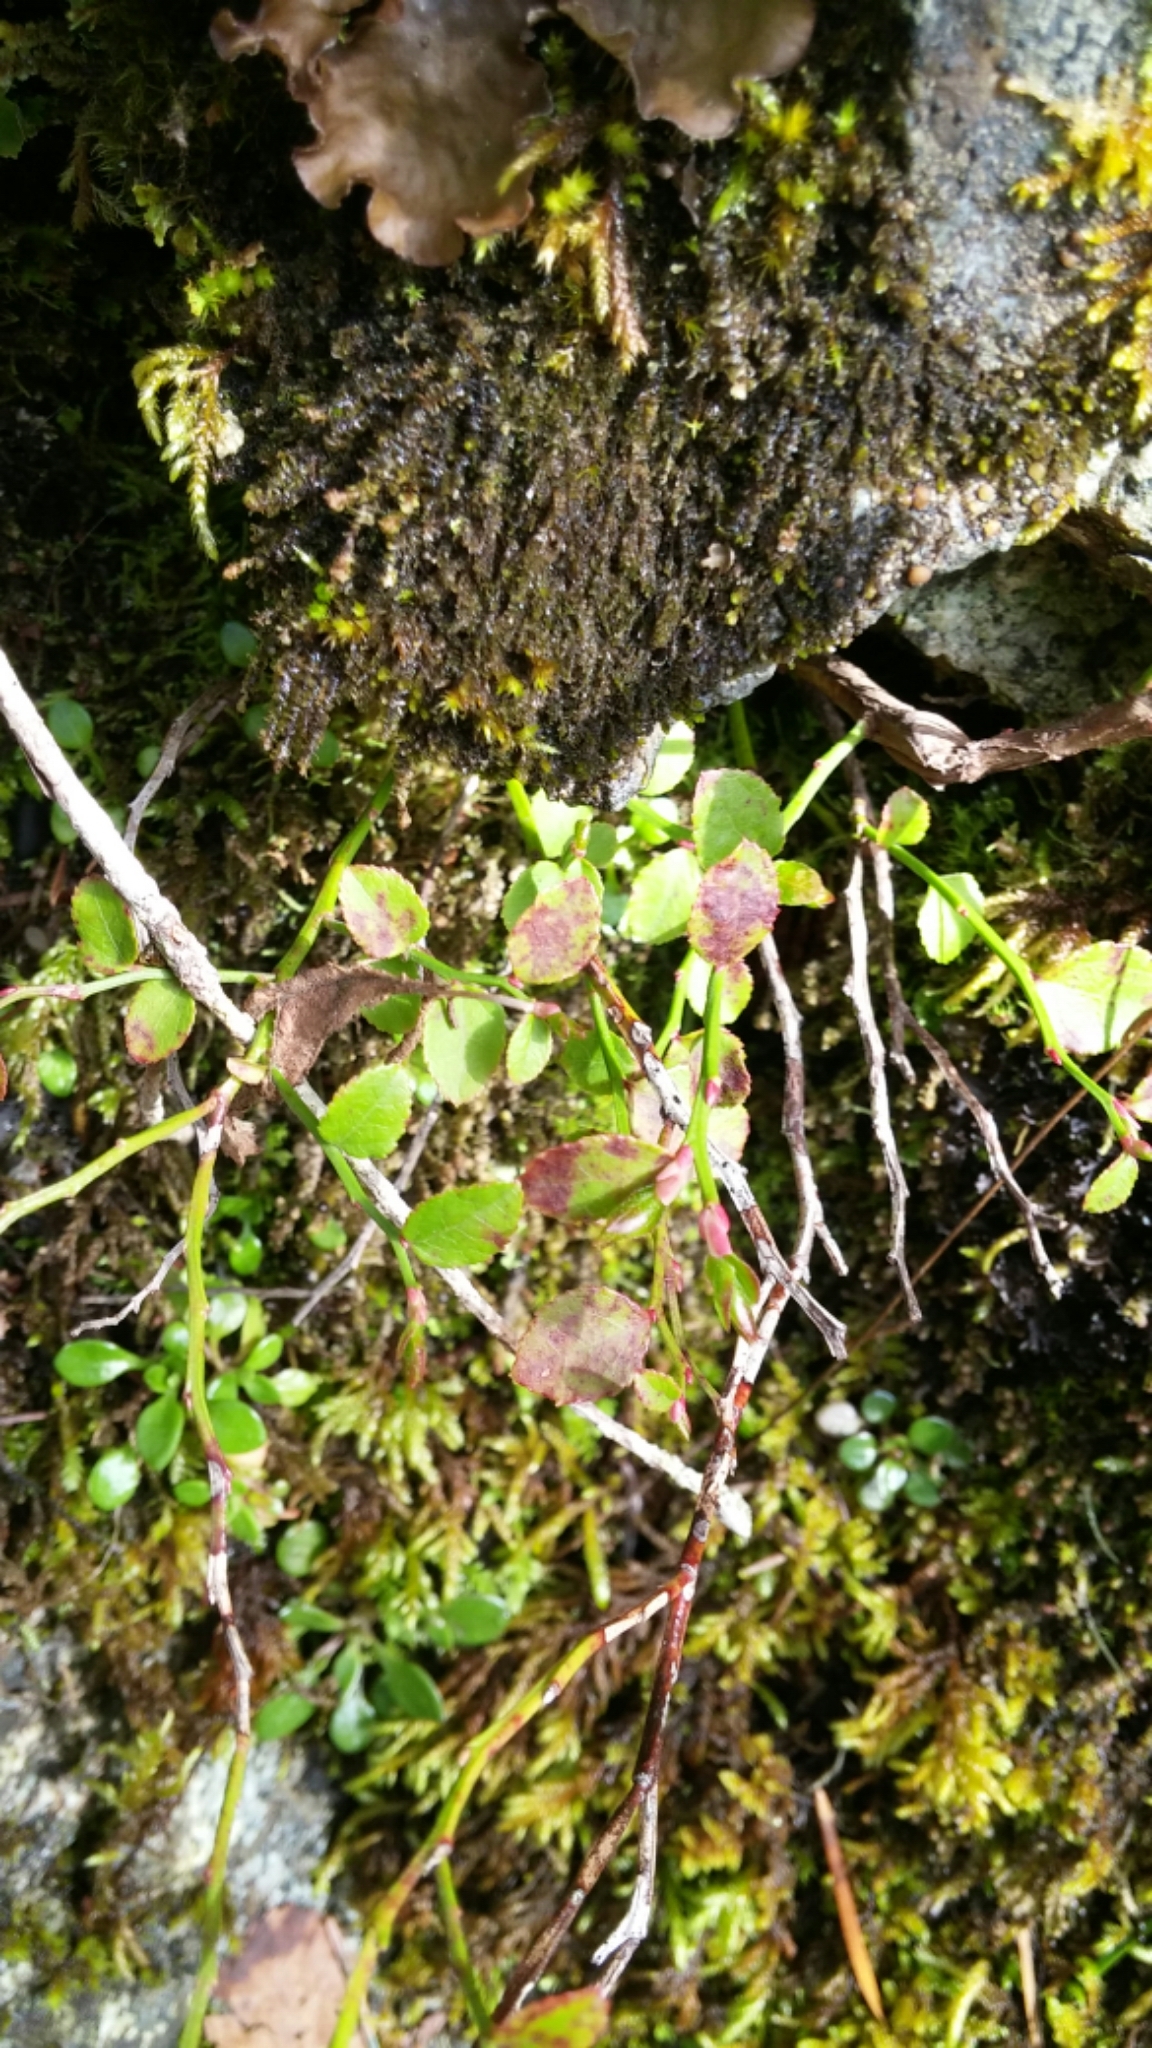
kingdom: Plantae
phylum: Tracheophyta
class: Magnoliopsida
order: Ericales
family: Ericaceae
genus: Vaccinium
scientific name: Vaccinium parvifolium
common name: Red-huckleberry
